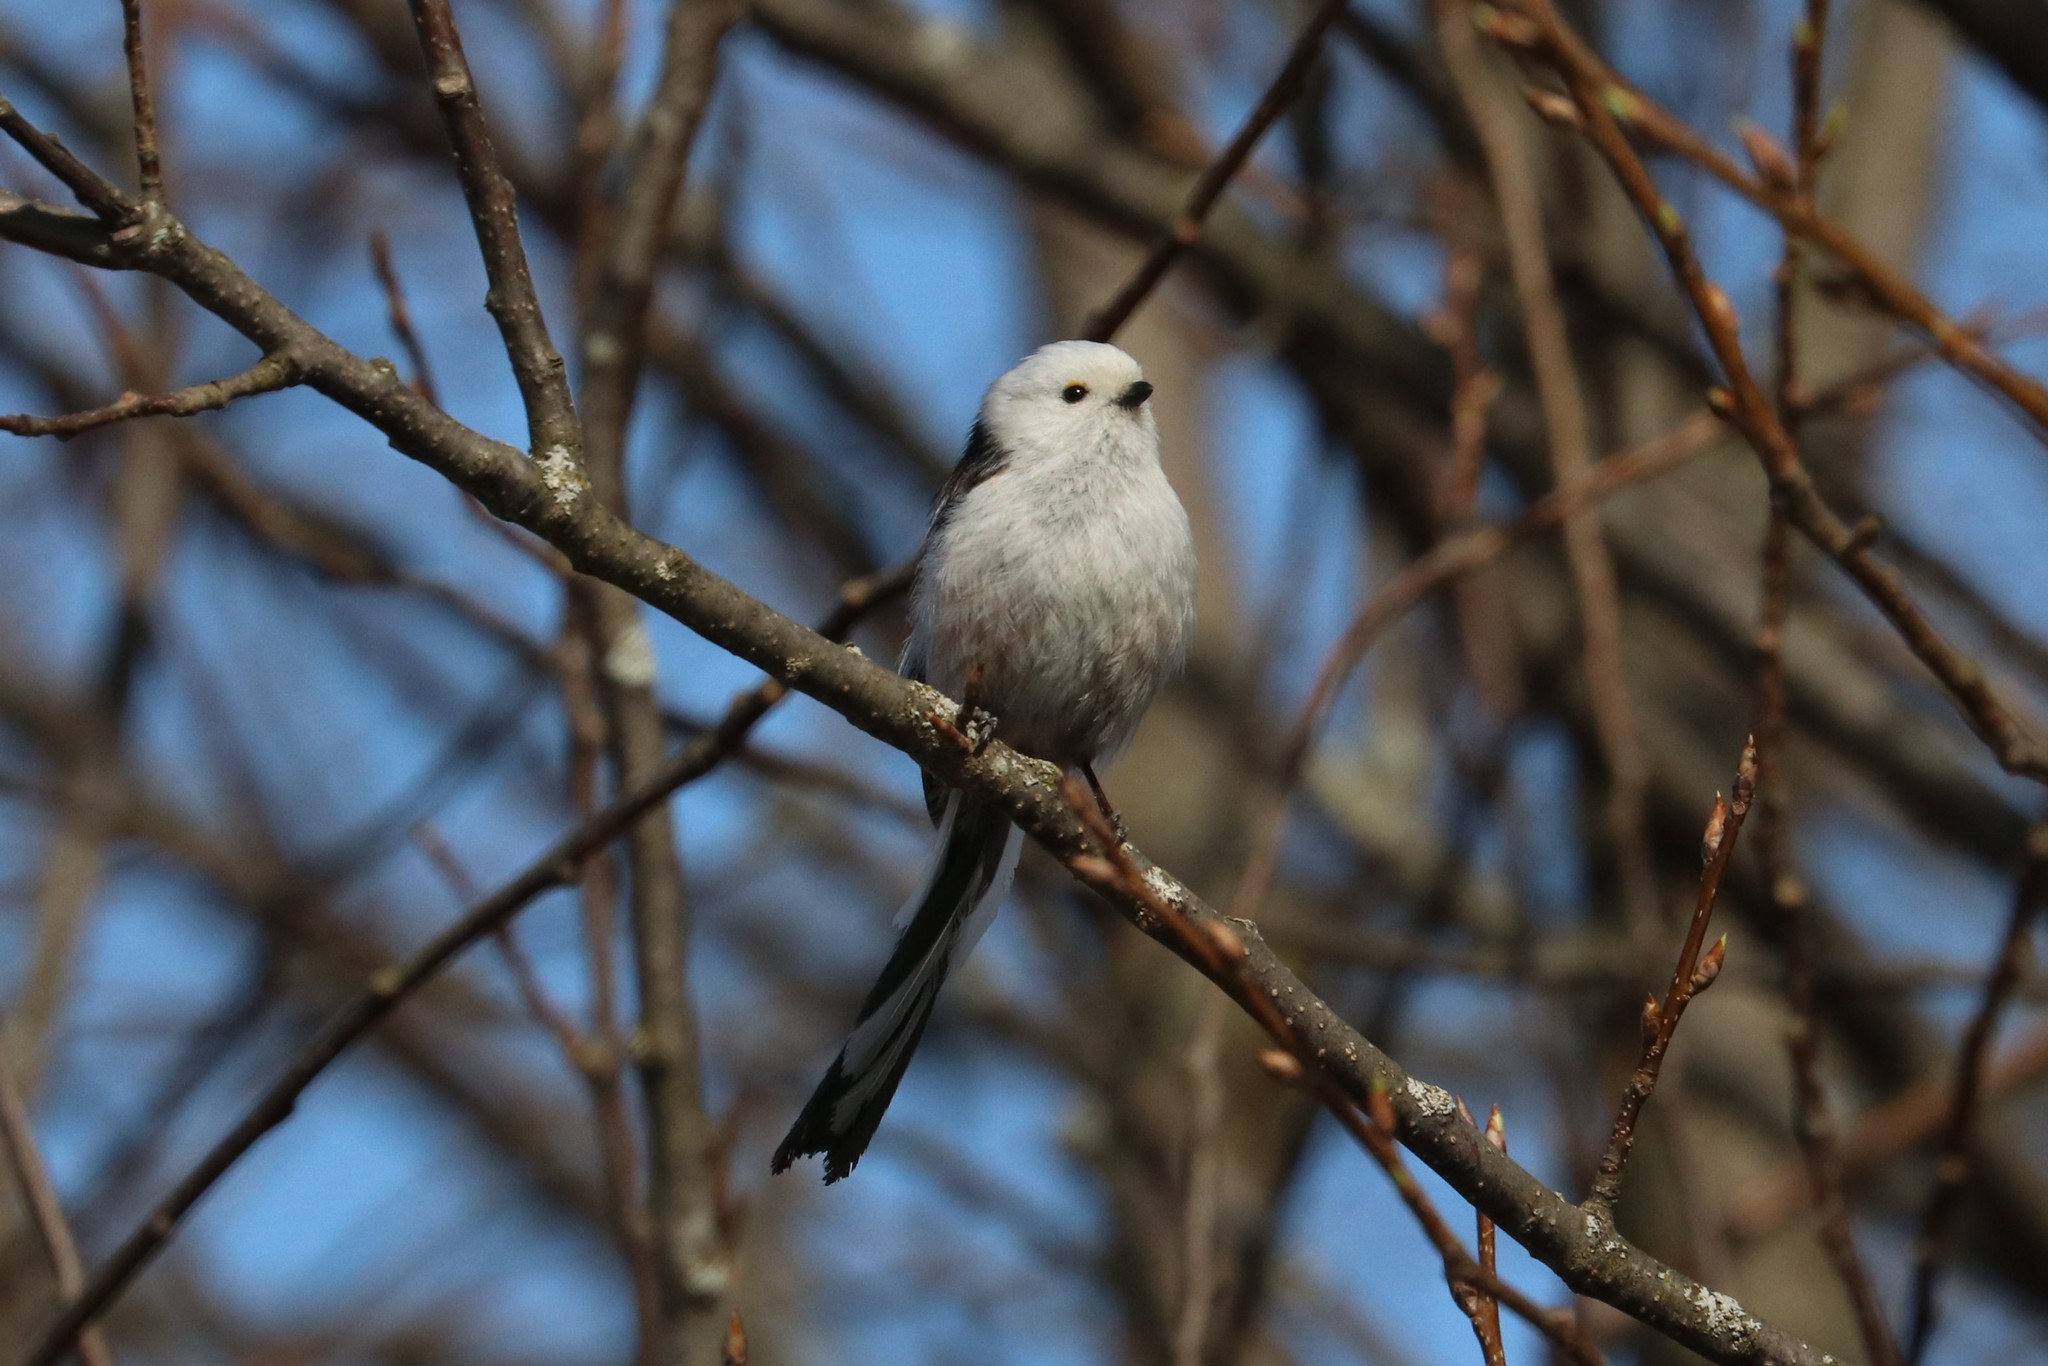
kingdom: Animalia
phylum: Chordata
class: Aves
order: Passeriformes
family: Aegithalidae
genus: Aegithalos
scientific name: Aegithalos caudatus
